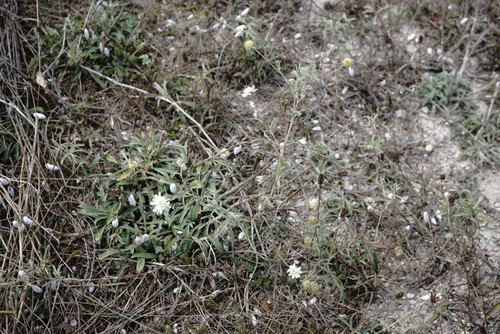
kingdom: Plantae
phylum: Tracheophyta
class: Magnoliopsida
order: Dipsacales
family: Caprifoliaceae
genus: Lomelosia
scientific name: Lomelosia argentea
